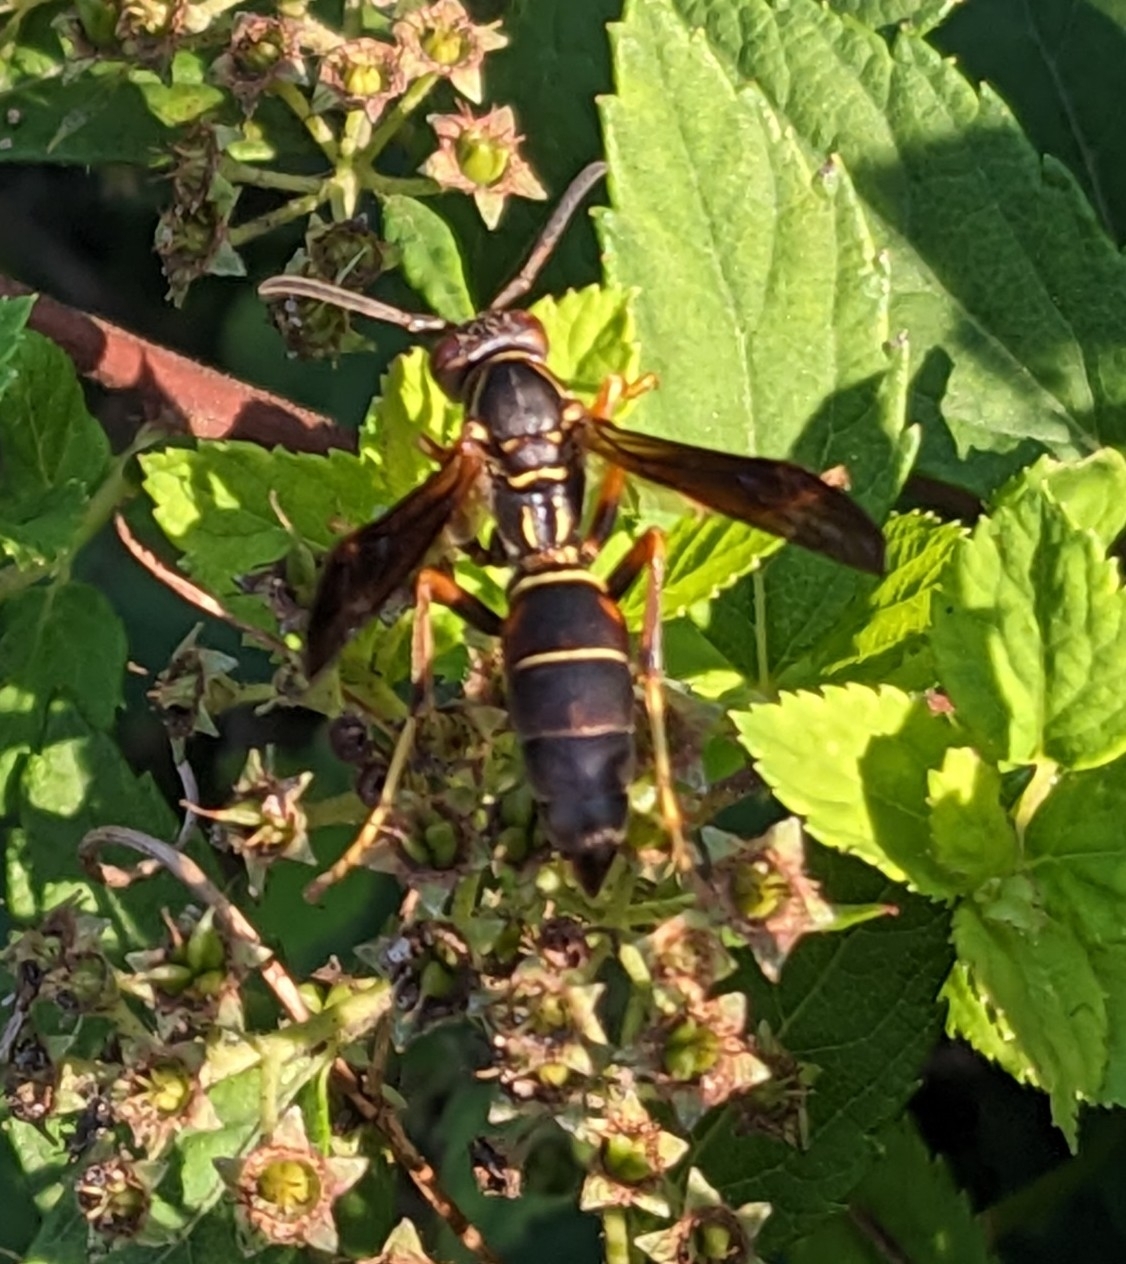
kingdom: Animalia
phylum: Arthropoda
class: Insecta
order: Hymenoptera
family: Eumenidae
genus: Polistes
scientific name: Polistes fuscatus
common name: Dark paper wasp
